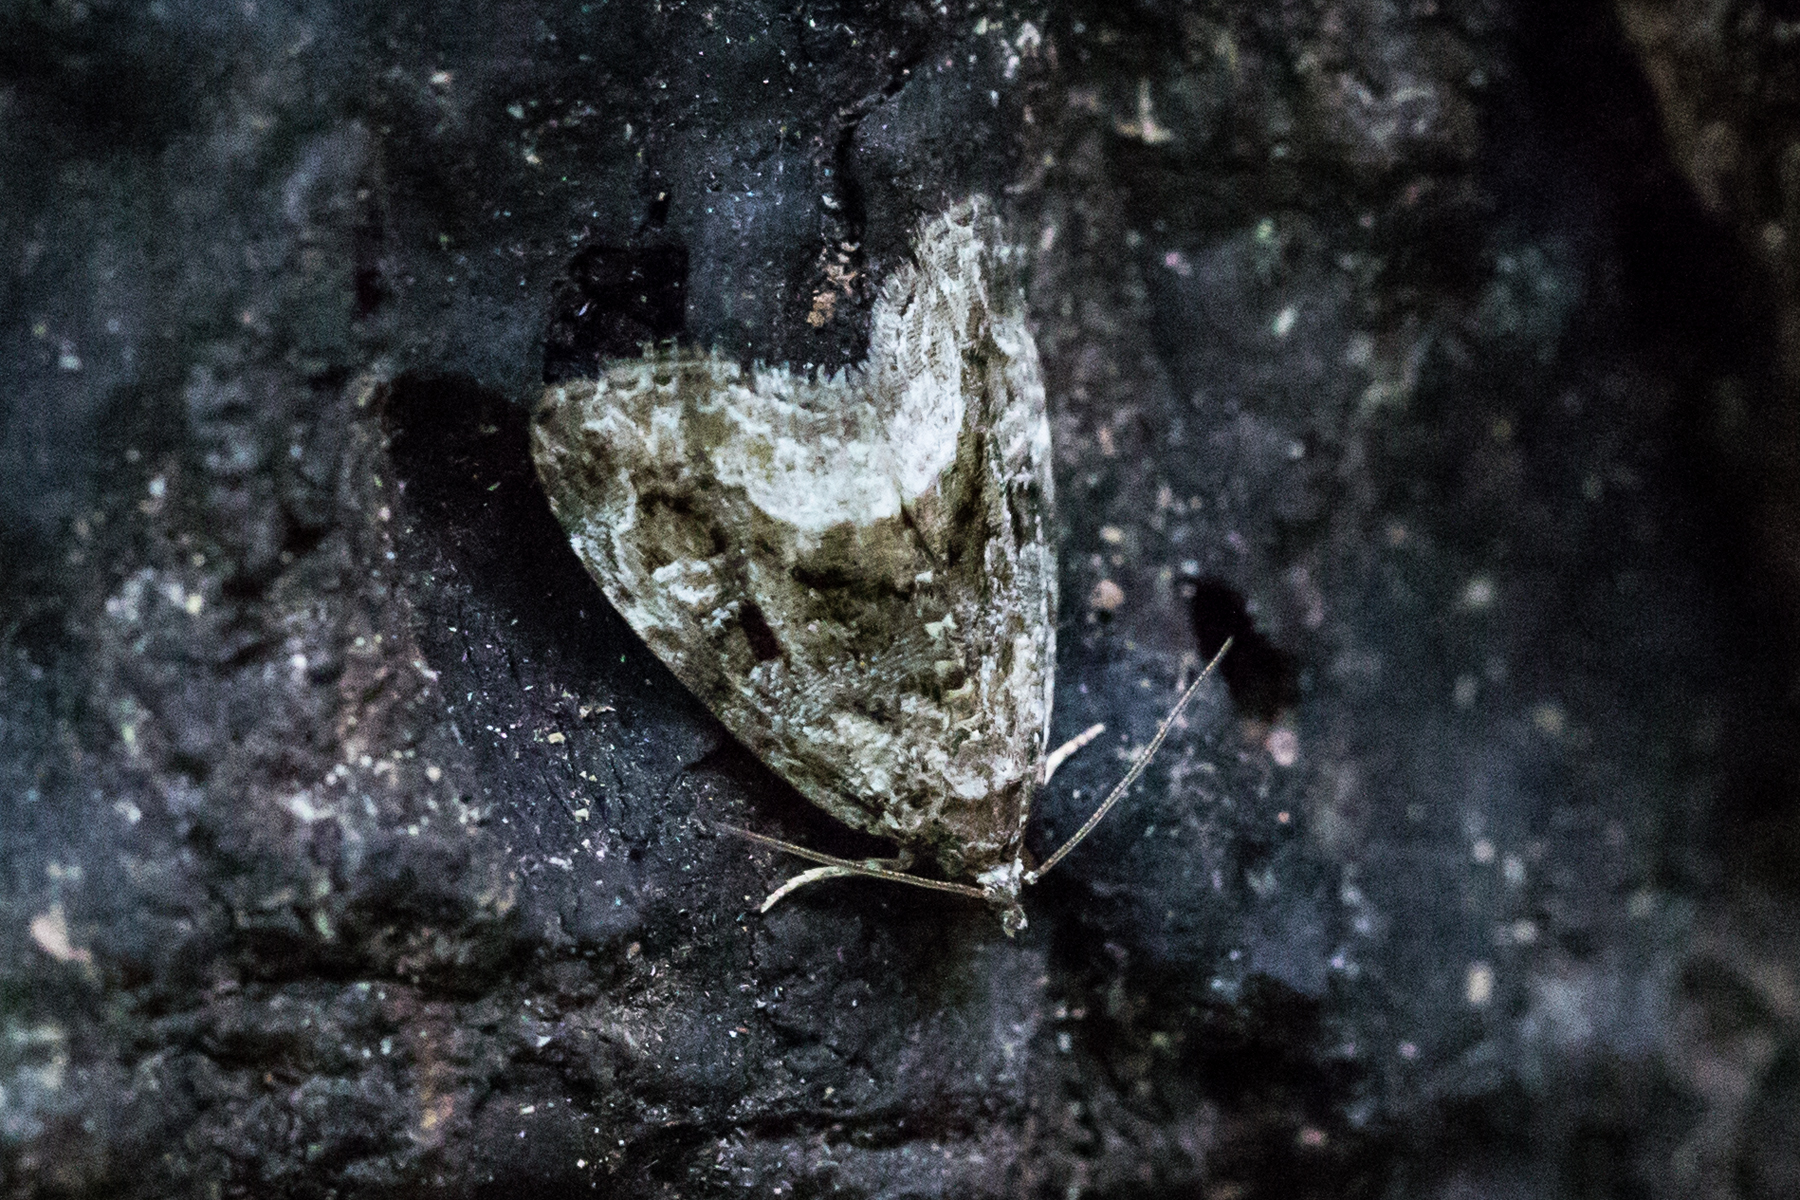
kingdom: Animalia
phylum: Arthropoda
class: Insecta
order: Lepidoptera
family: Noctuidae
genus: Protodeltote
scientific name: Protodeltote muscosula
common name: Large mossy glyph
